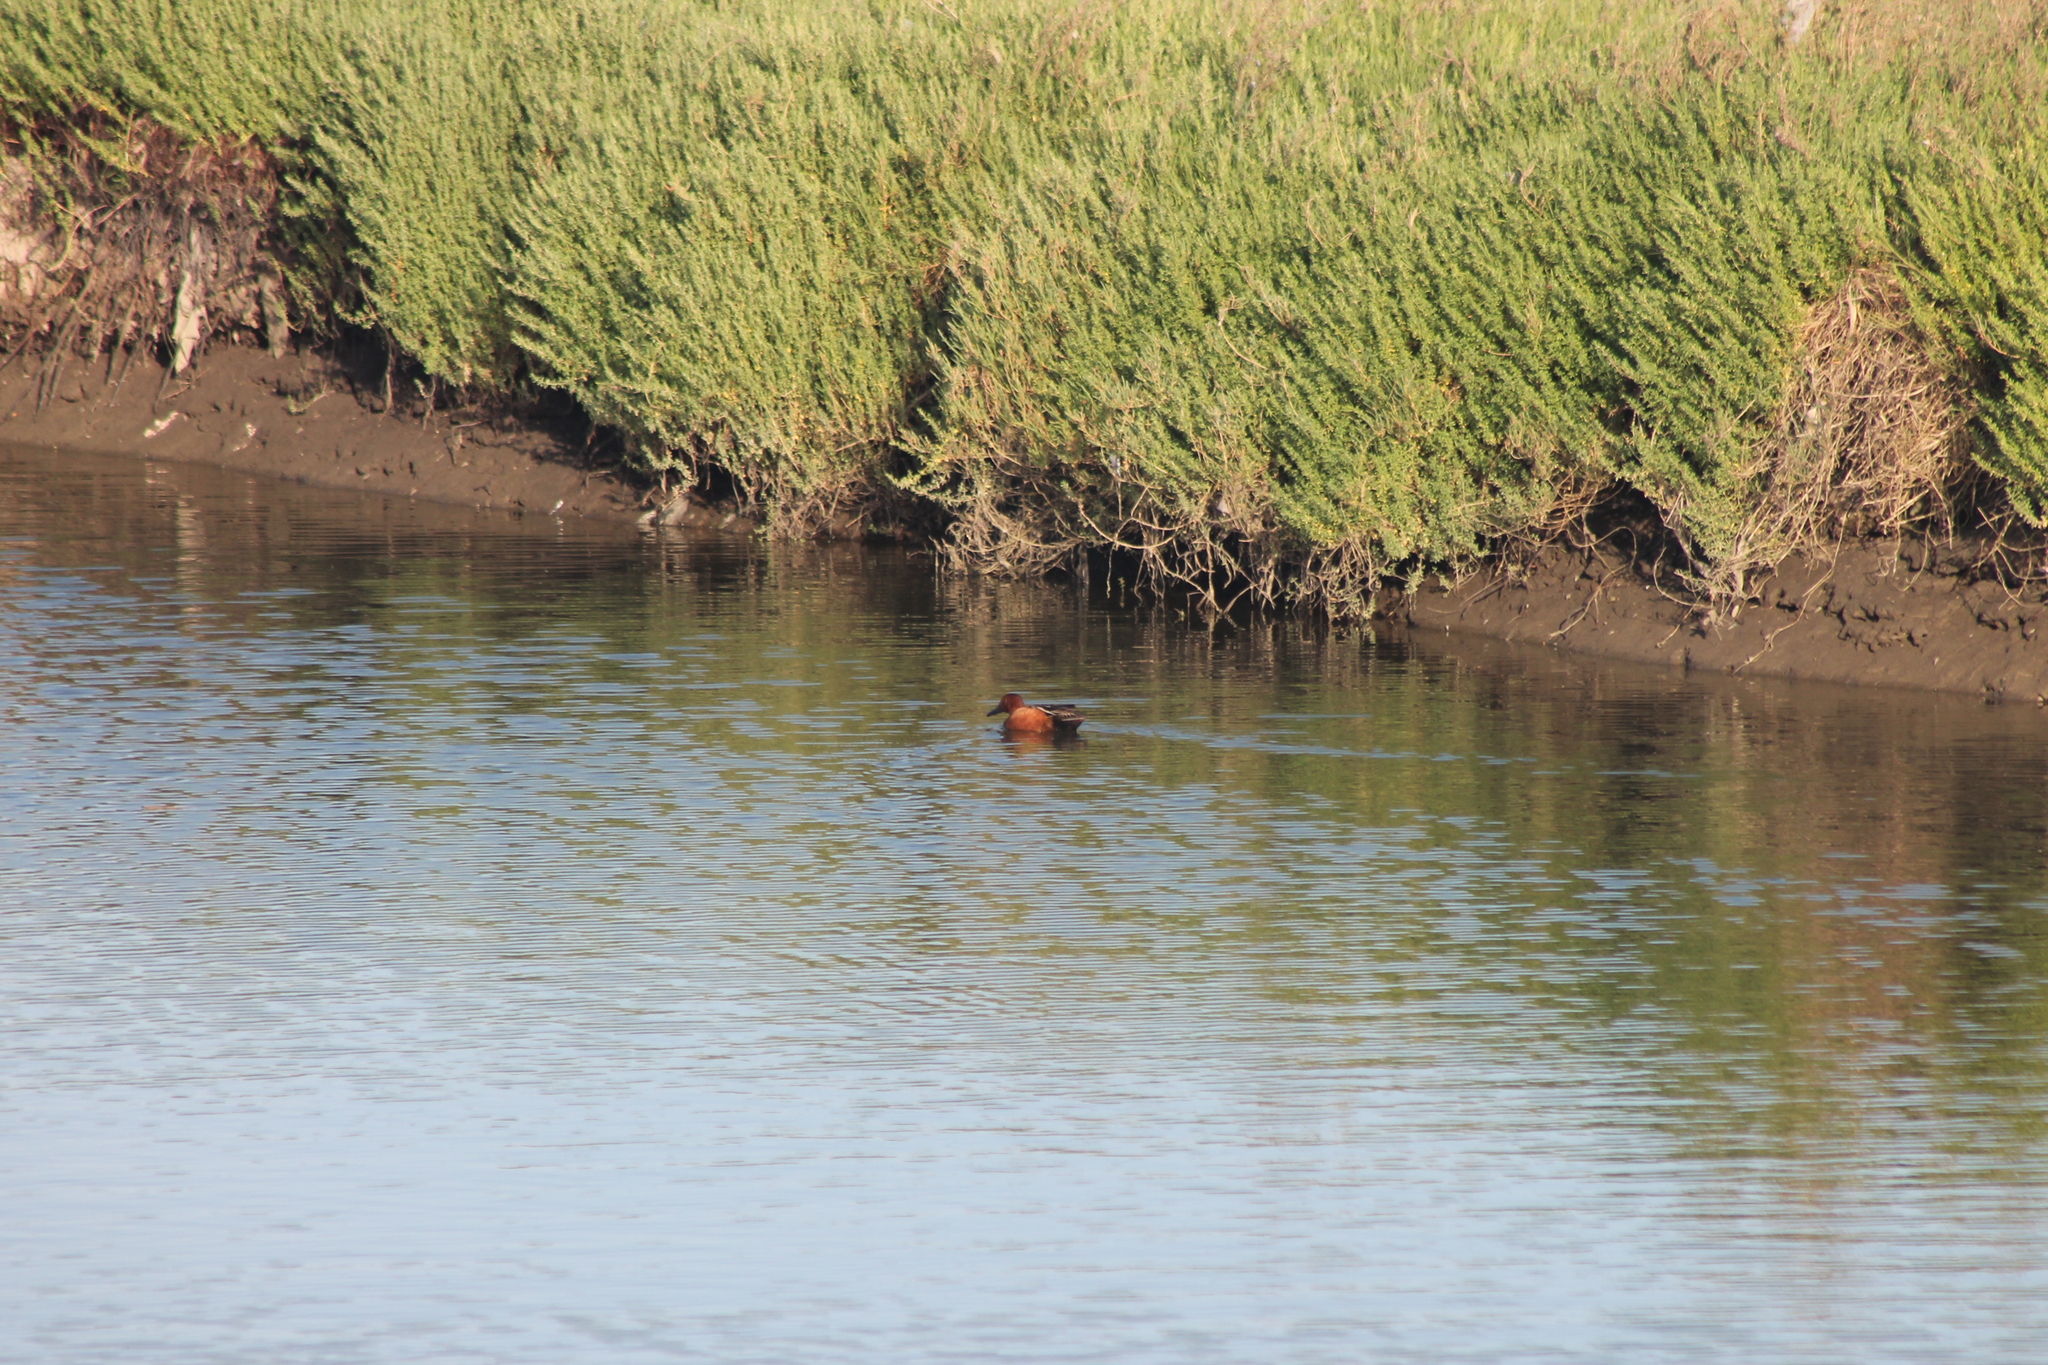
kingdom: Animalia
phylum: Chordata
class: Aves
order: Anseriformes
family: Anatidae
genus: Spatula
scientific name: Spatula cyanoptera
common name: Cinnamon teal
